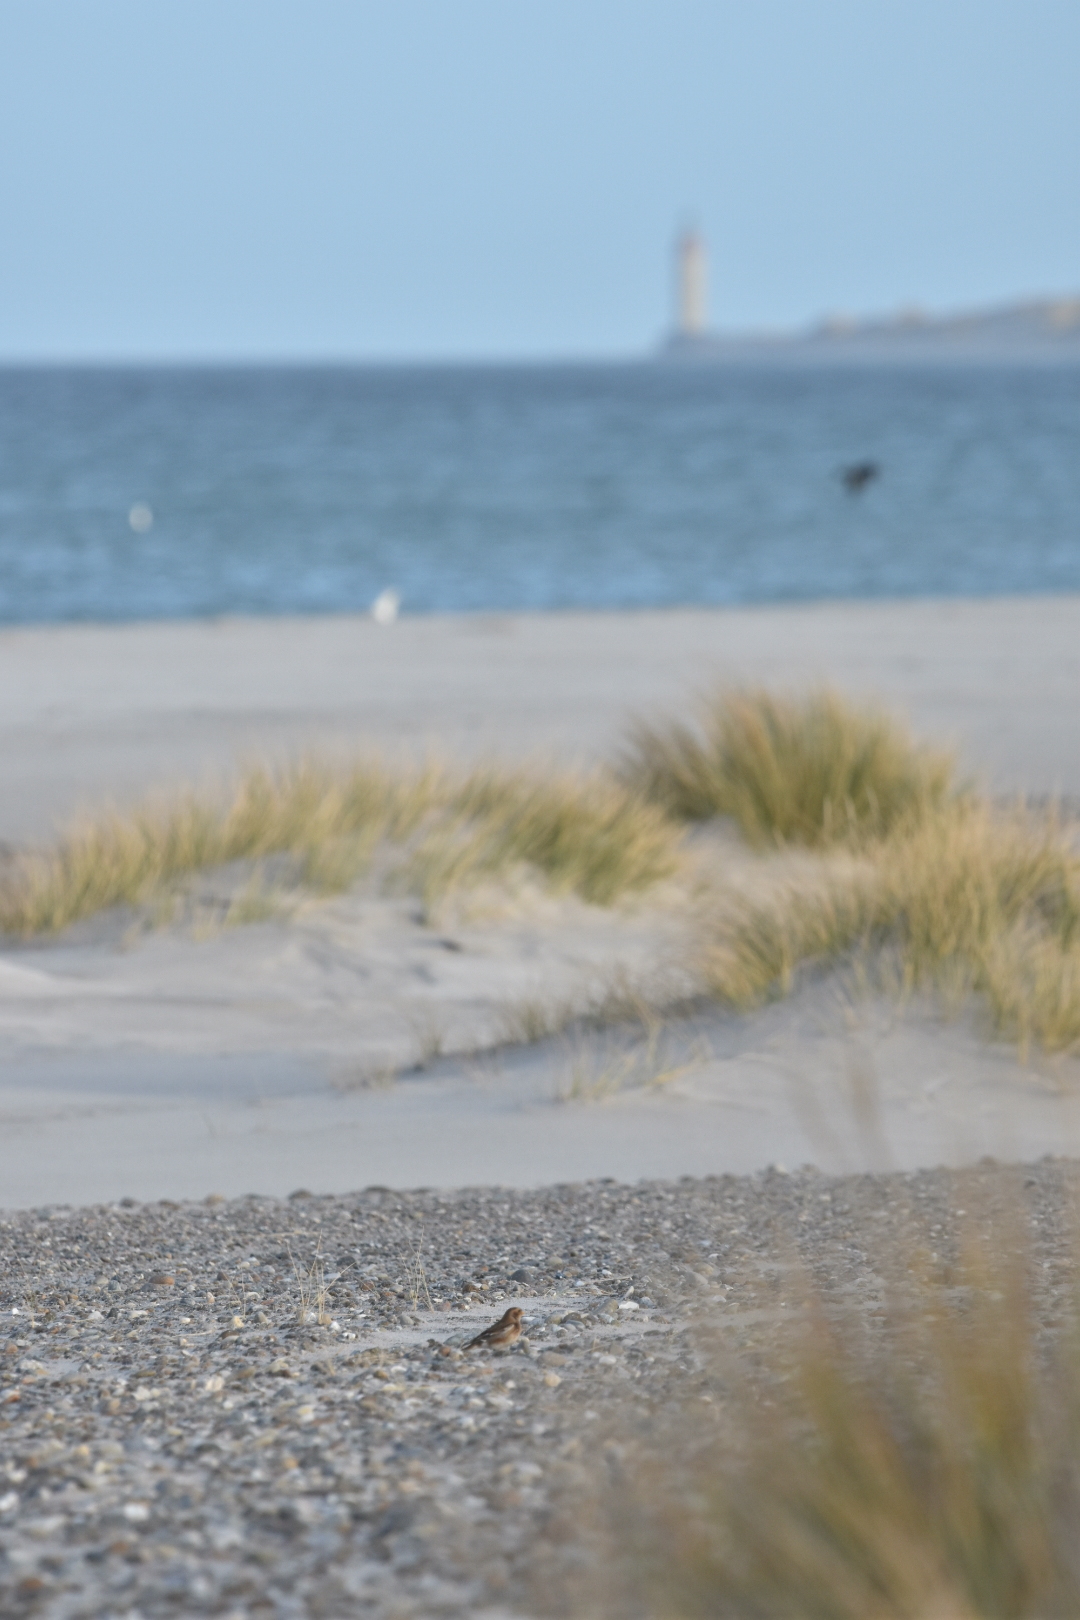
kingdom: Animalia
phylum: Chordata
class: Aves
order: Passeriformes
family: Calcariidae
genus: Plectrophenax
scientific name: Plectrophenax nivalis
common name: Snow bunting
